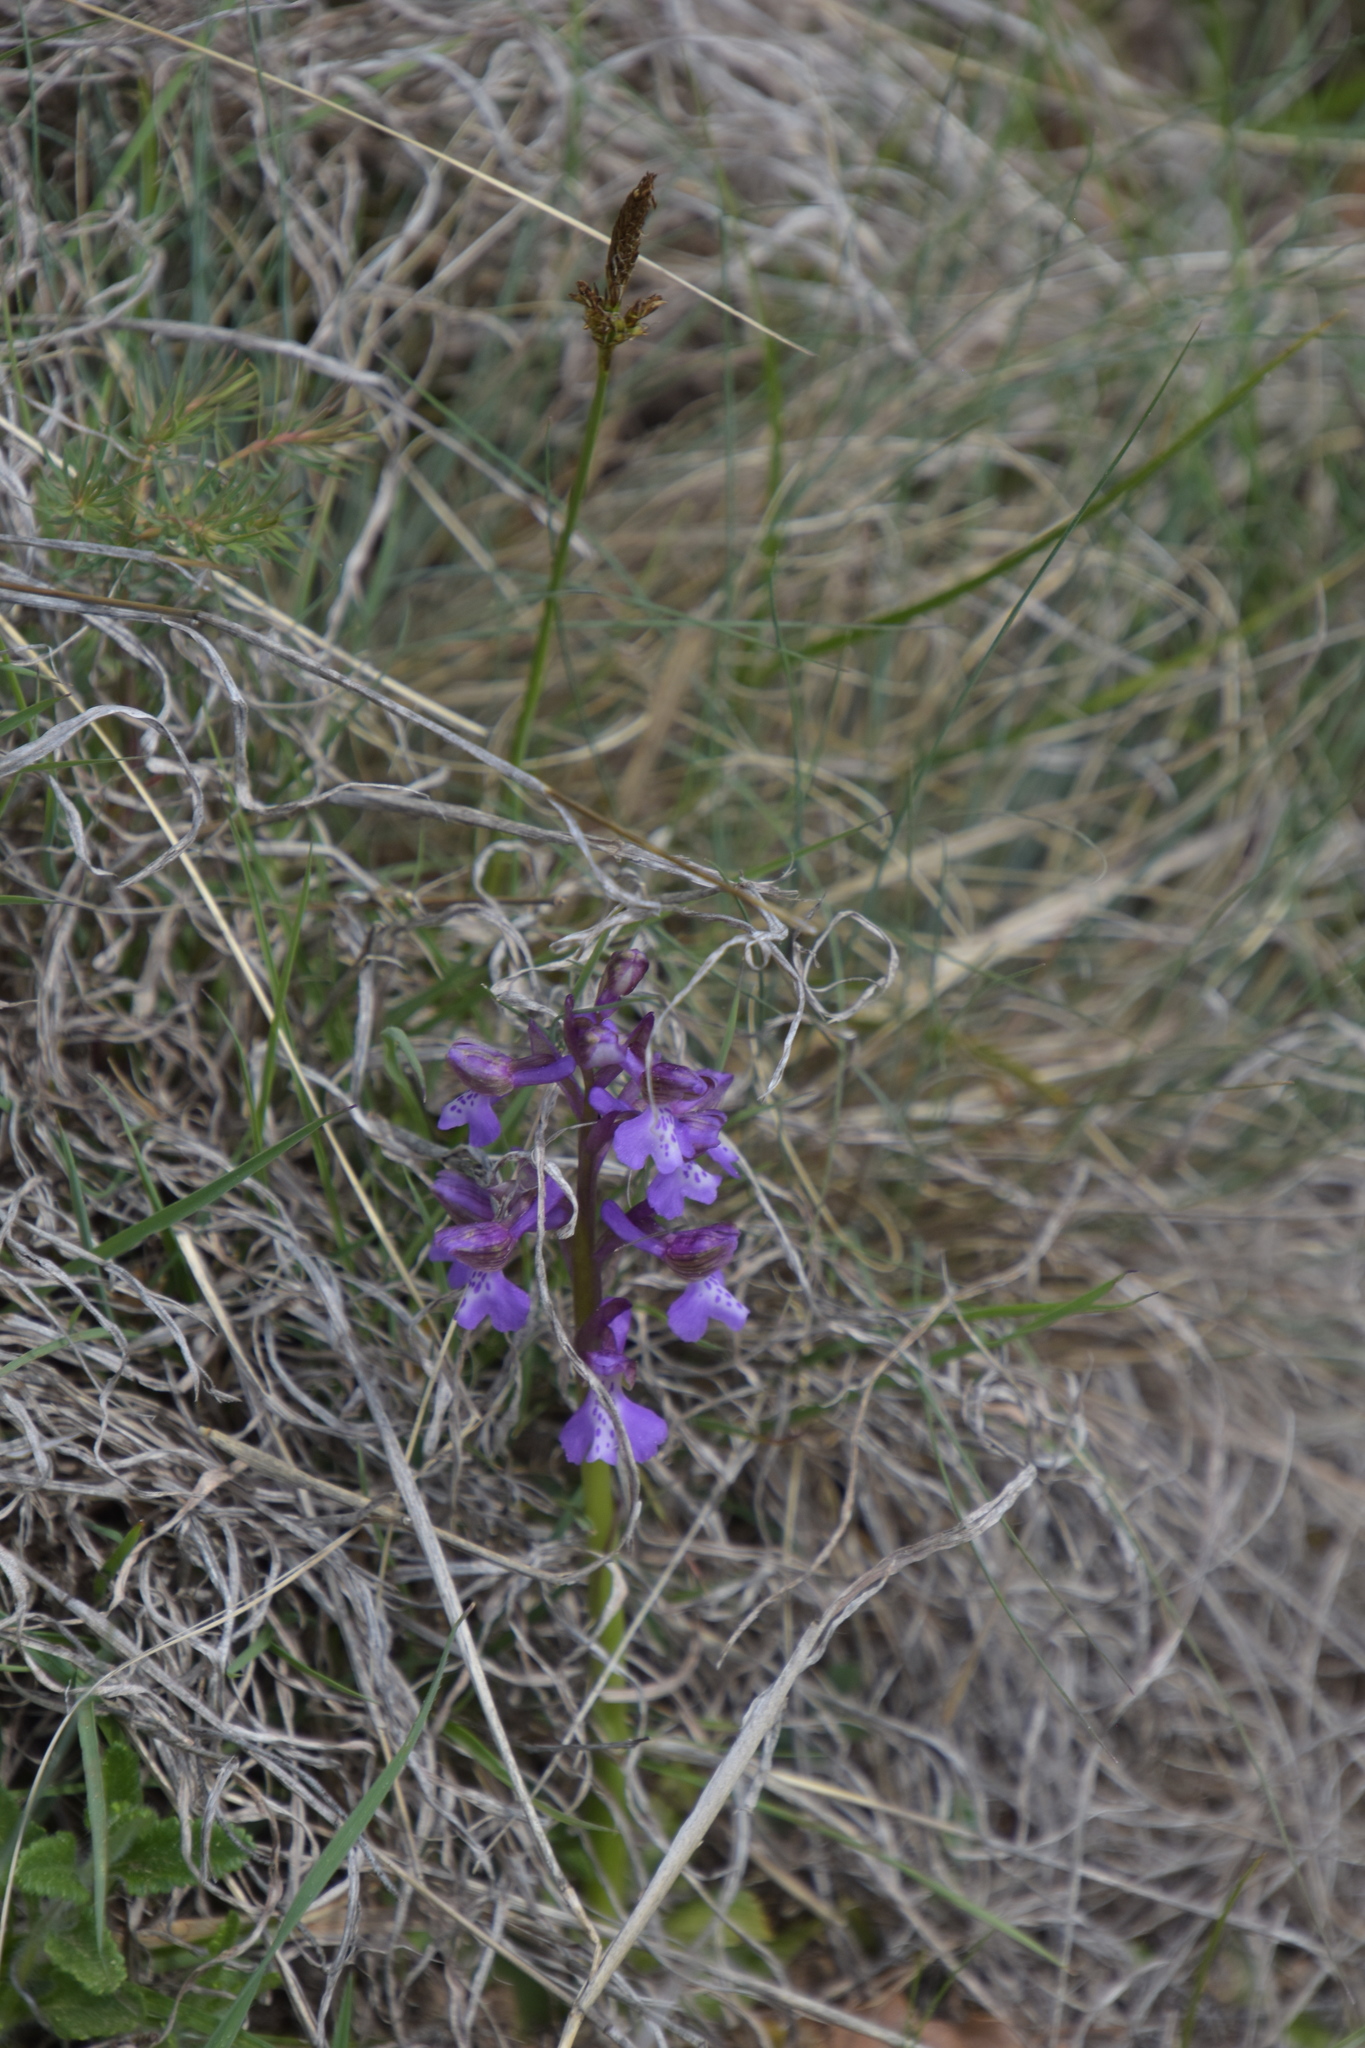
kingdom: Plantae
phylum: Tracheophyta
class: Liliopsida
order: Asparagales
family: Orchidaceae
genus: Anacamptis
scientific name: Anacamptis morio
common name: Green-winged orchid
